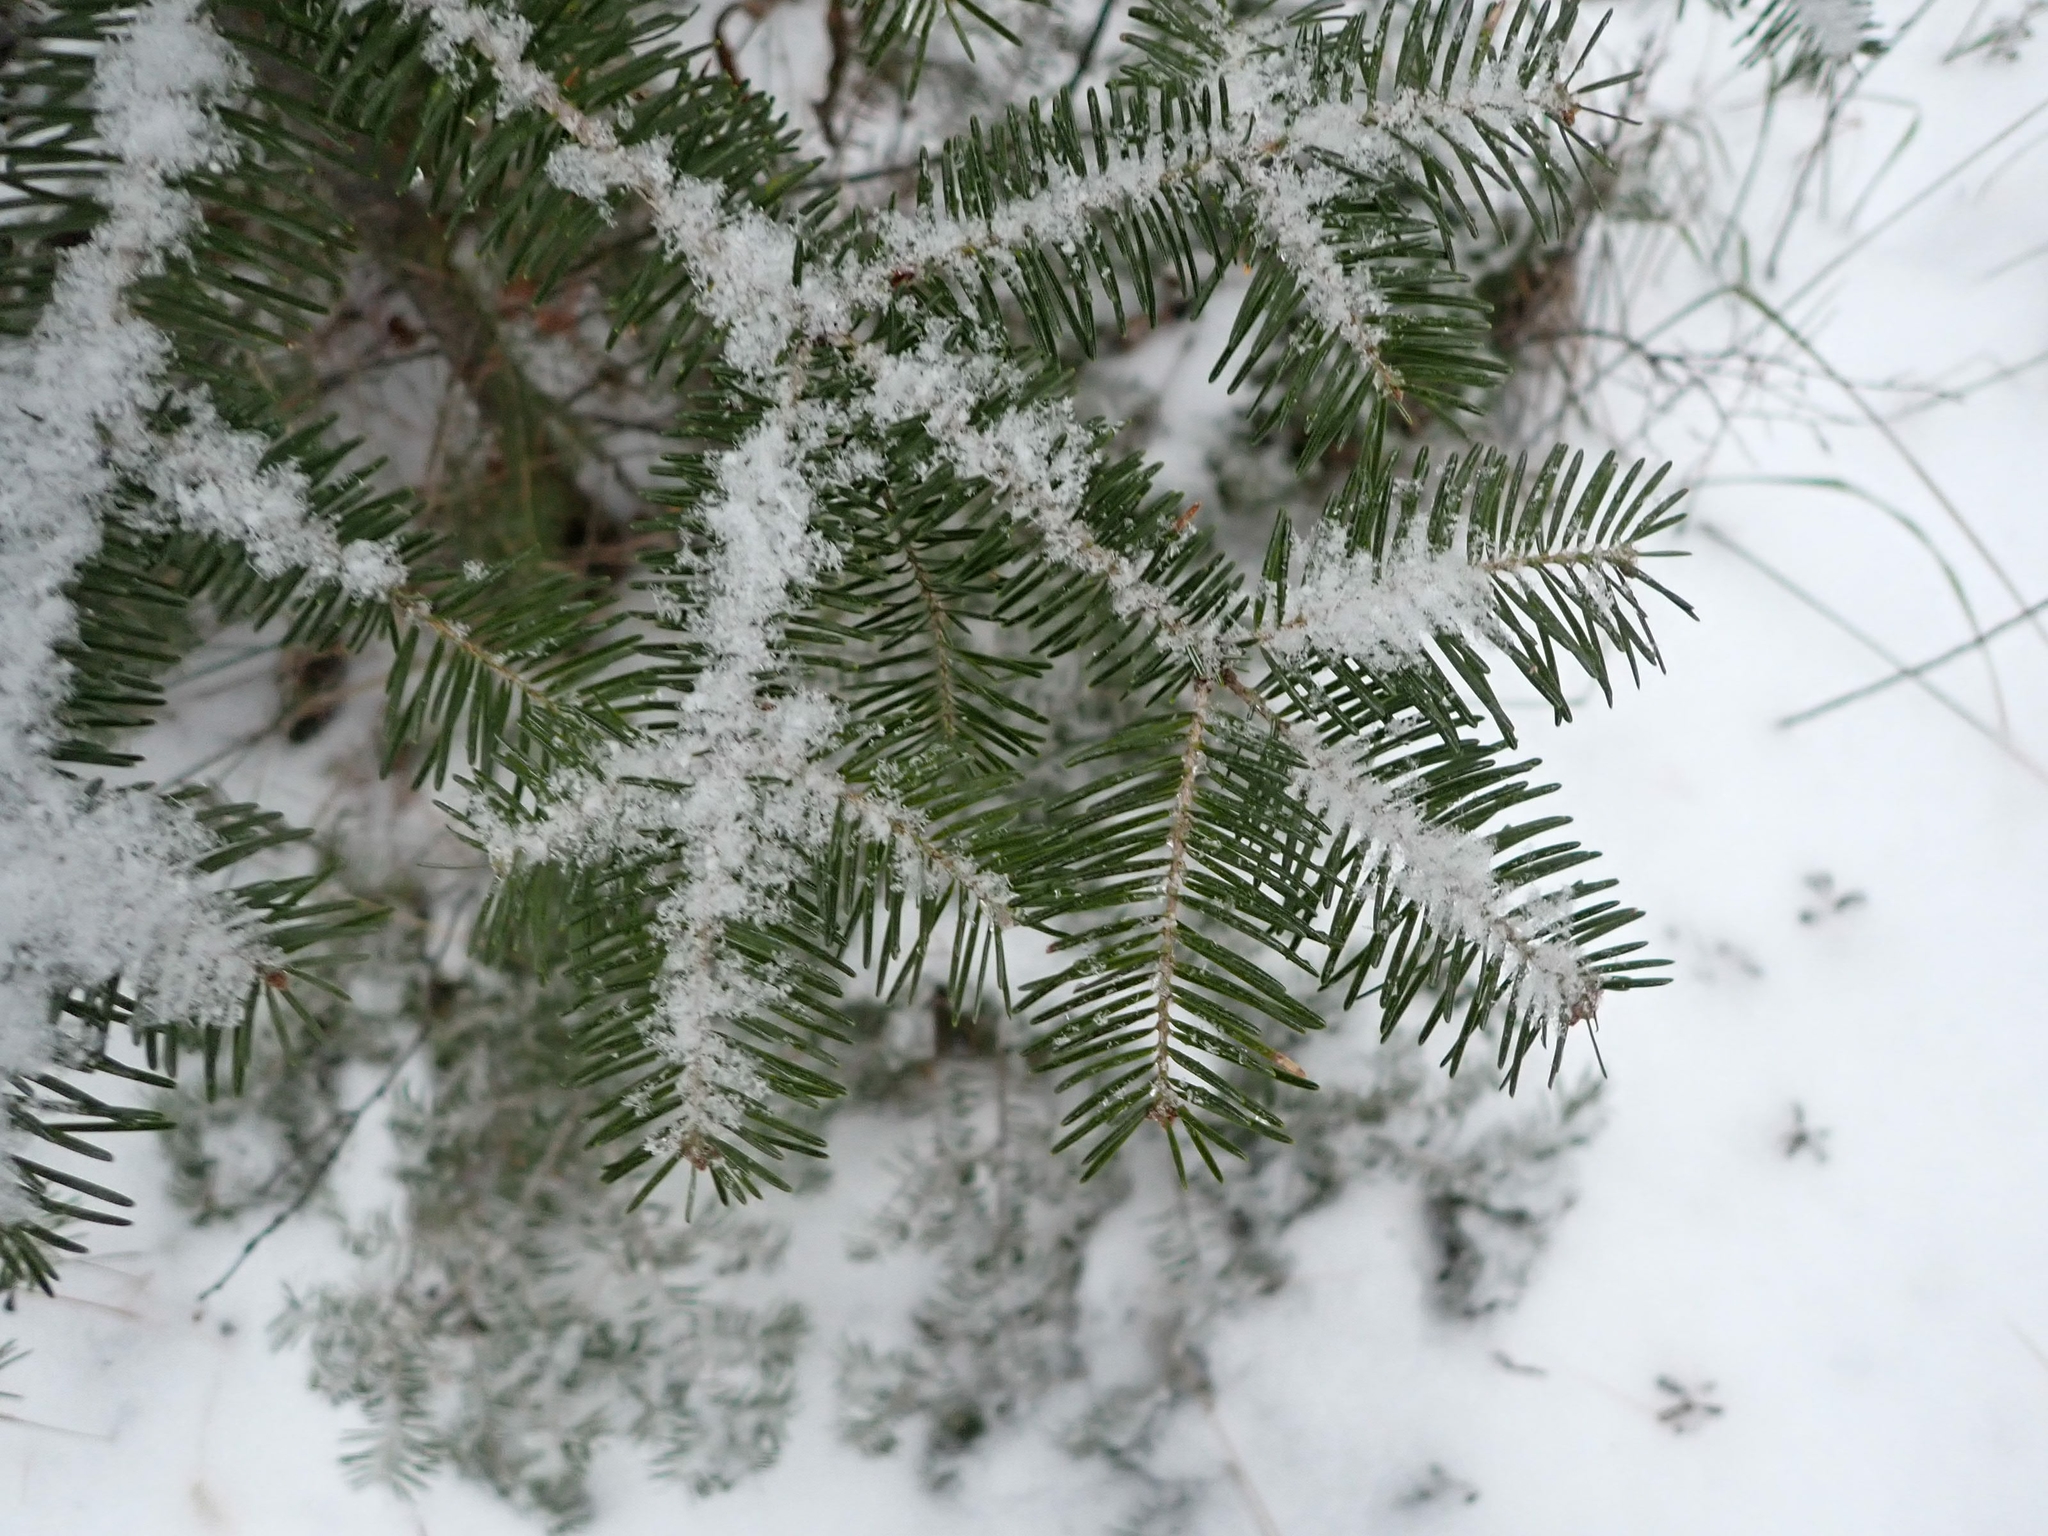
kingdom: Plantae
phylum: Tracheophyta
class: Pinopsida
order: Pinales
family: Pinaceae
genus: Abies
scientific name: Abies balsamea
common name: Balsam fir
